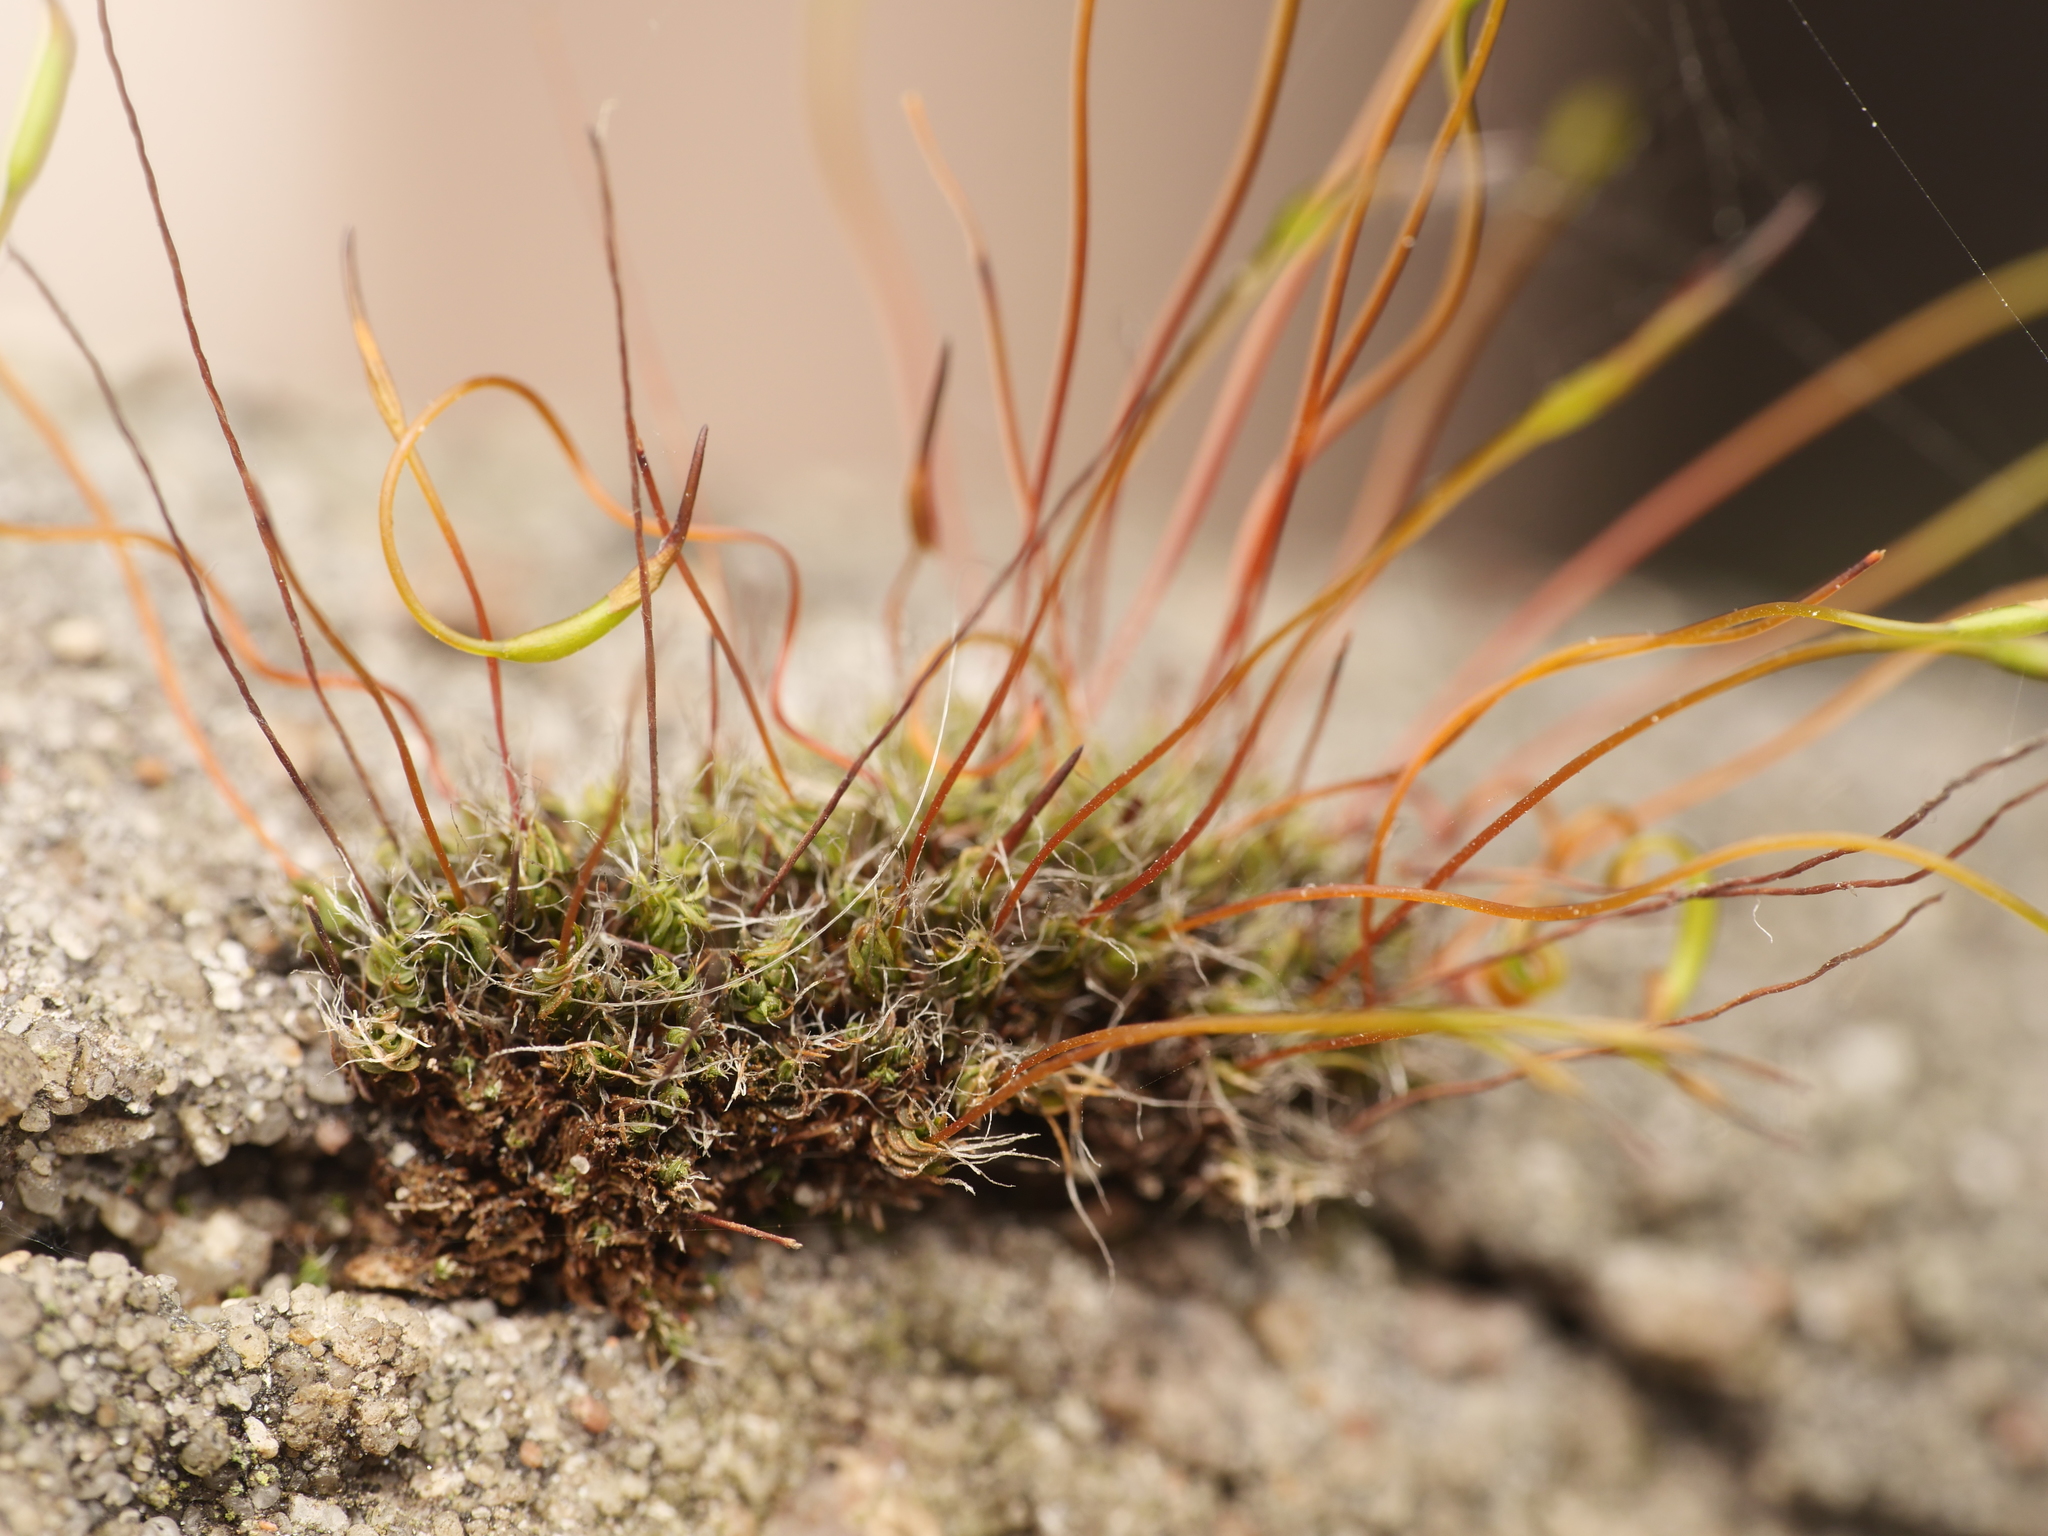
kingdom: Plantae
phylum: Bryophyta
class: Bryopsida
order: Pottiales
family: Pottiaceae
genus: Tortula
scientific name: Tortula muralis
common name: Wall screw-moss
